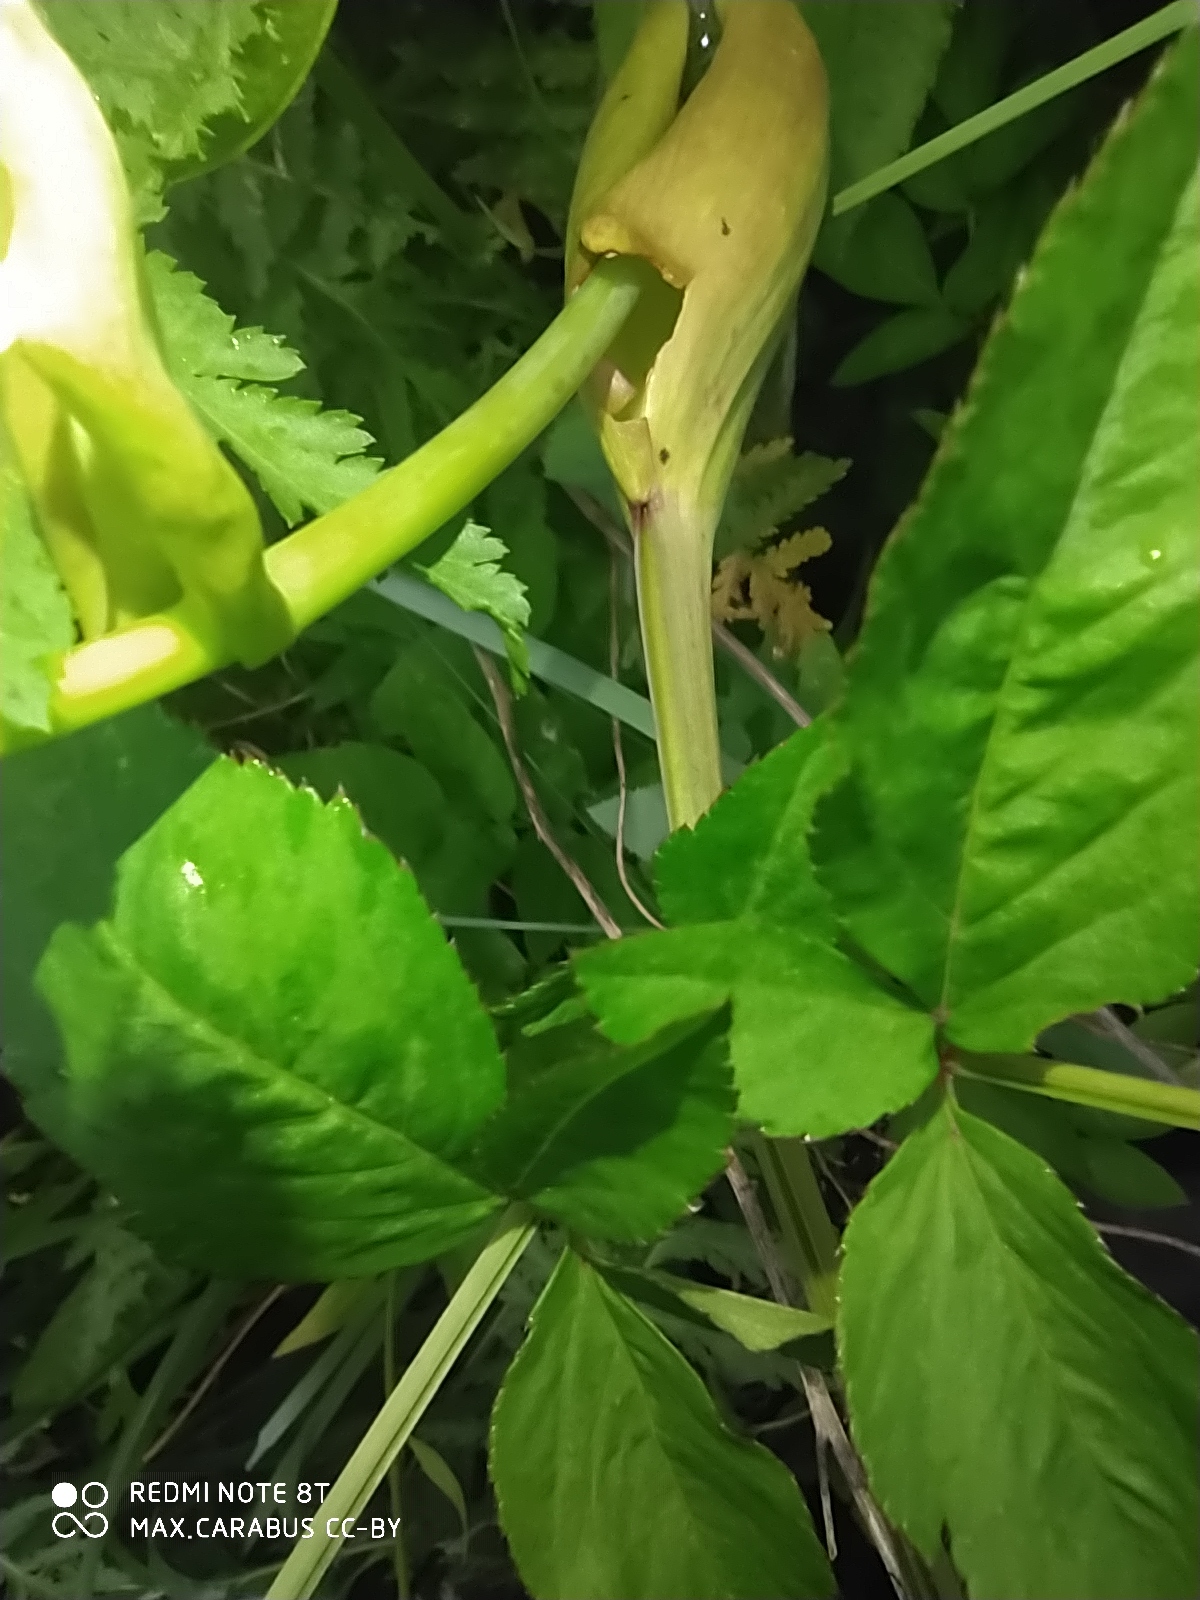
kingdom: Plantae
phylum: Tracheophyta
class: Magnoliopsida
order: Apiales
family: Apiaceae
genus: Angelica
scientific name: Angelica sylvestris
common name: Wild angelica
